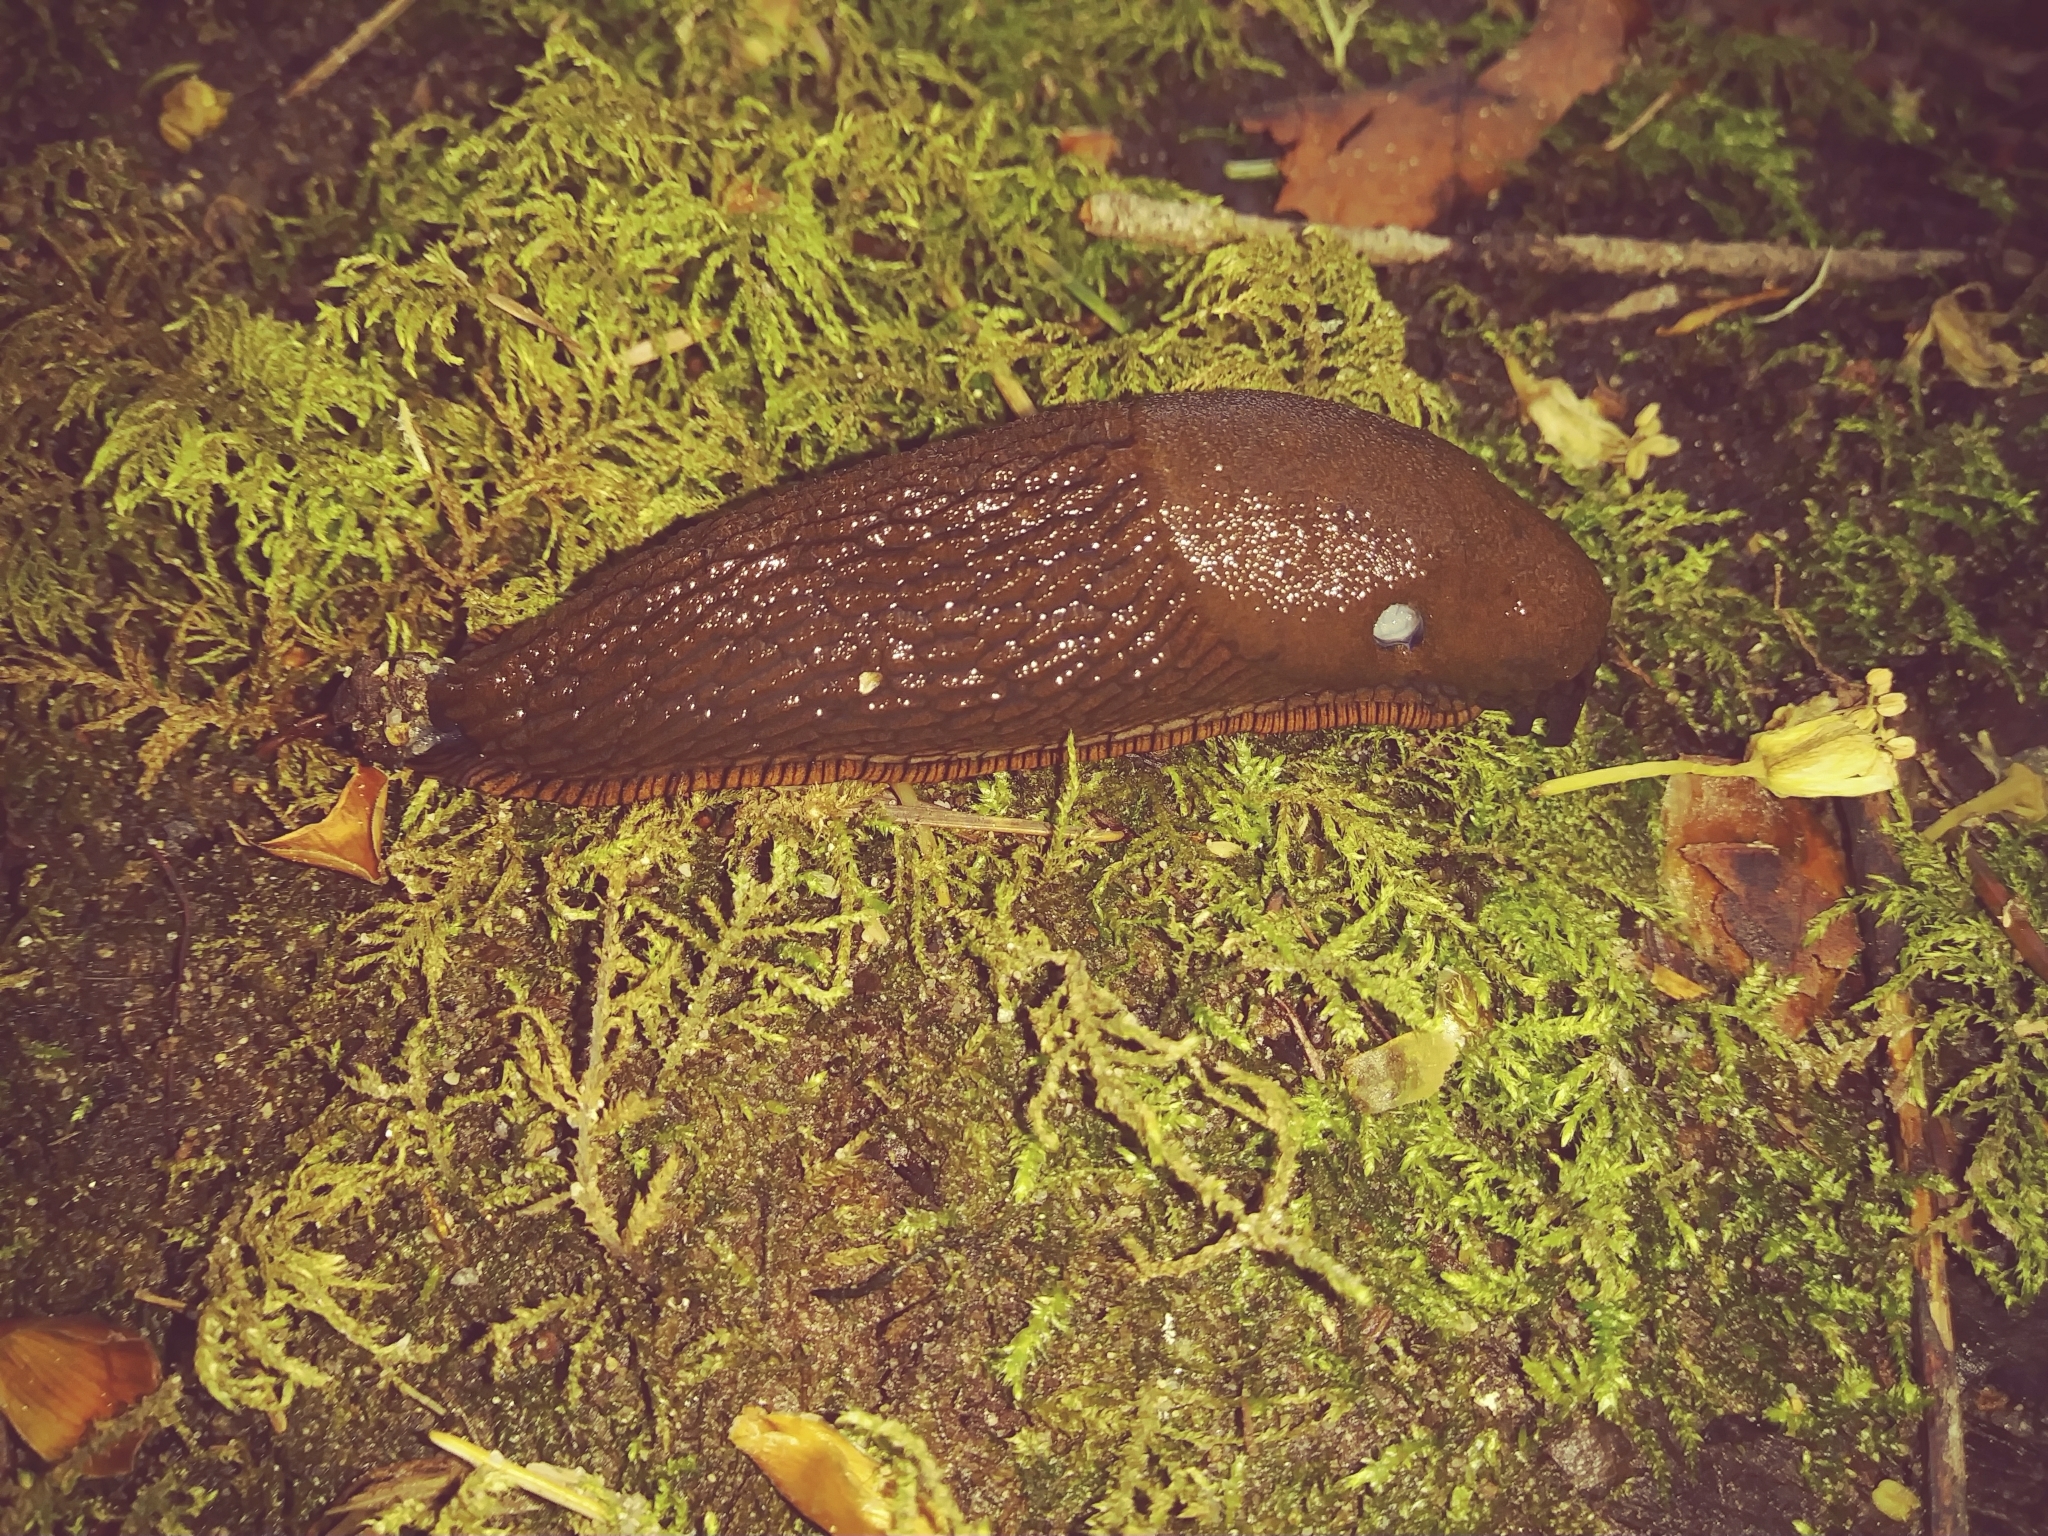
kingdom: Animalia
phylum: Mollusca
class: Gastropoda
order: Stylommatophora
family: Arionidae
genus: Arion
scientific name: Arion rufus
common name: Chocolate arion
